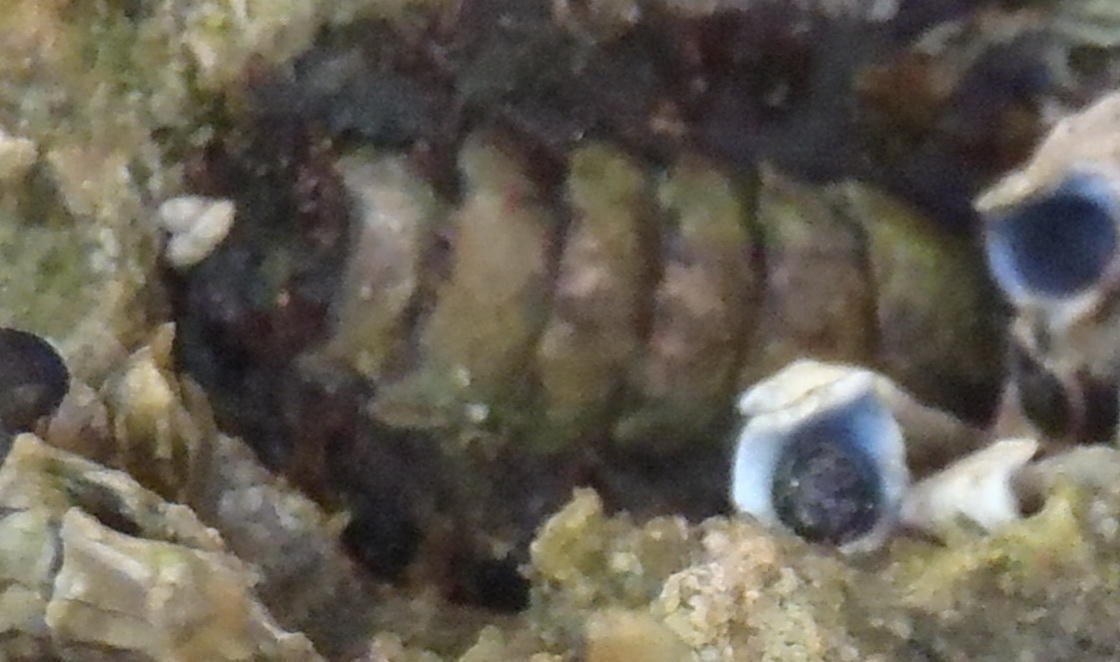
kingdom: Animalia
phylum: Mollusca
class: Polyplacophora
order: Chitonida
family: Acanthochitonidae
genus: Acanthochitona
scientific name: Acanthochitona garnoti
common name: Spiny chiton
